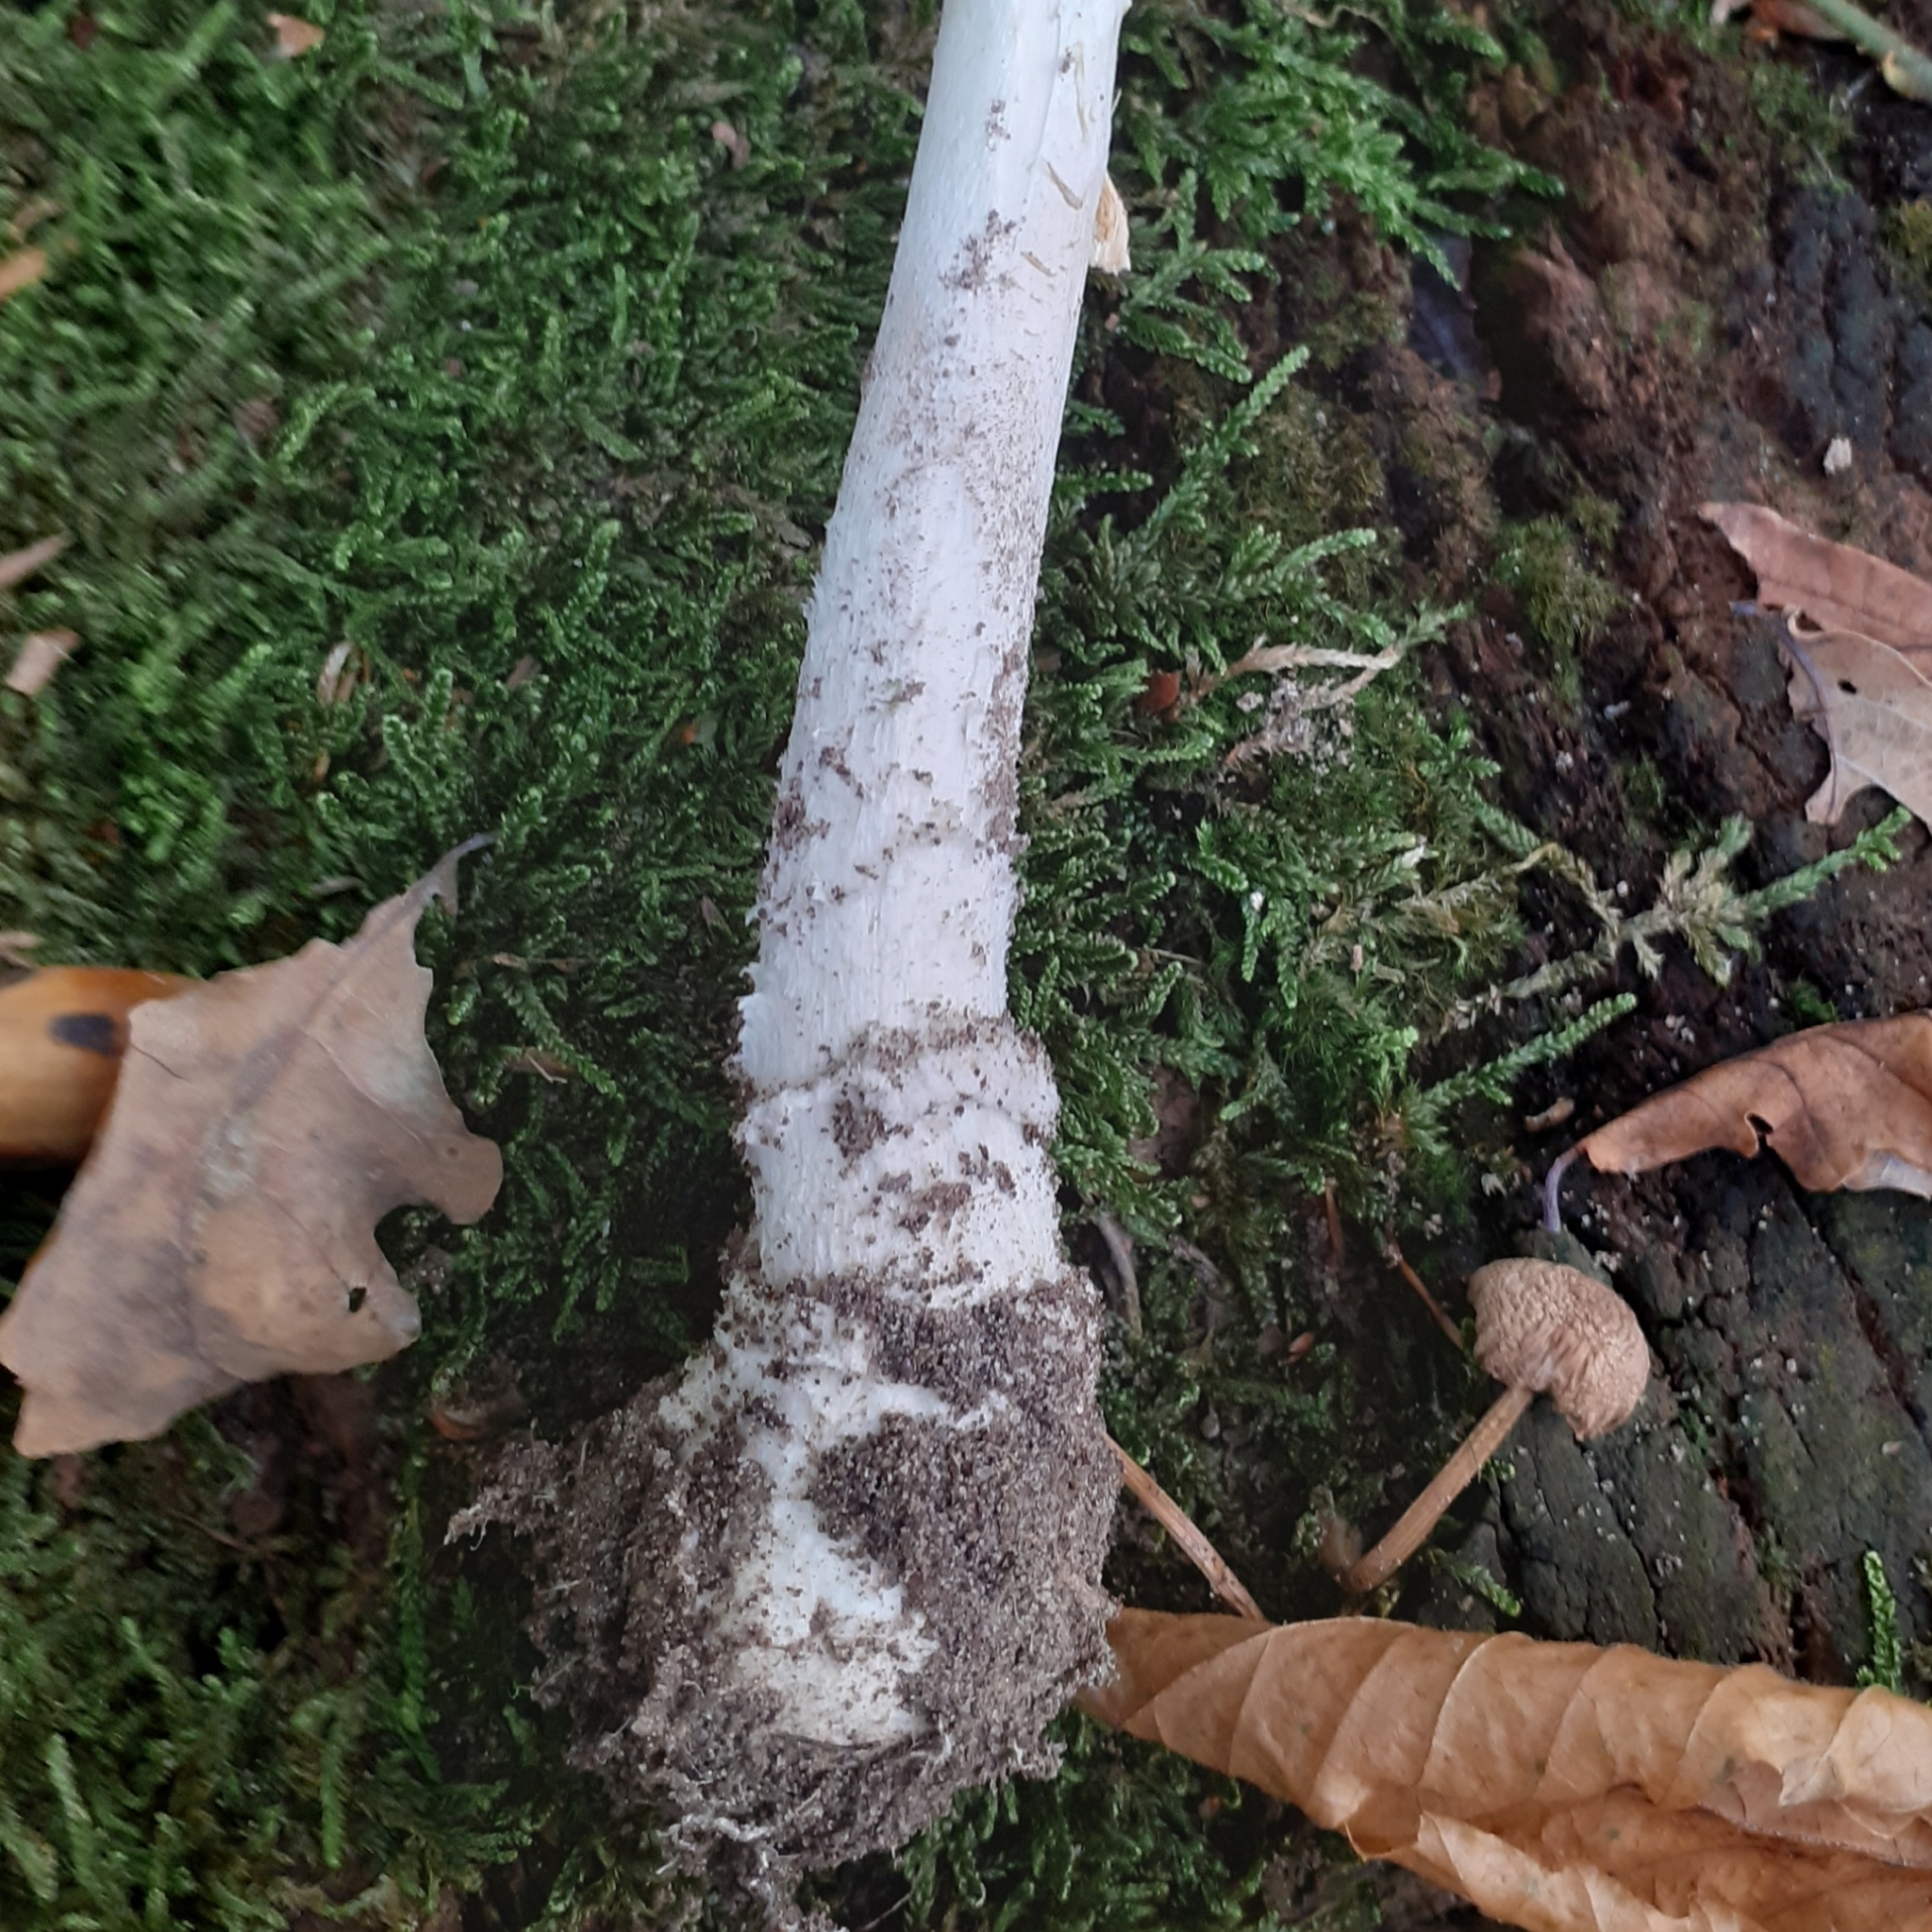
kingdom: Fungi
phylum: Basidiomycota
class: Agaricomycetes
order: Agaricales
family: Amanitaceae
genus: Amanita
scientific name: Amanita pantherina
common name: Panthercap
